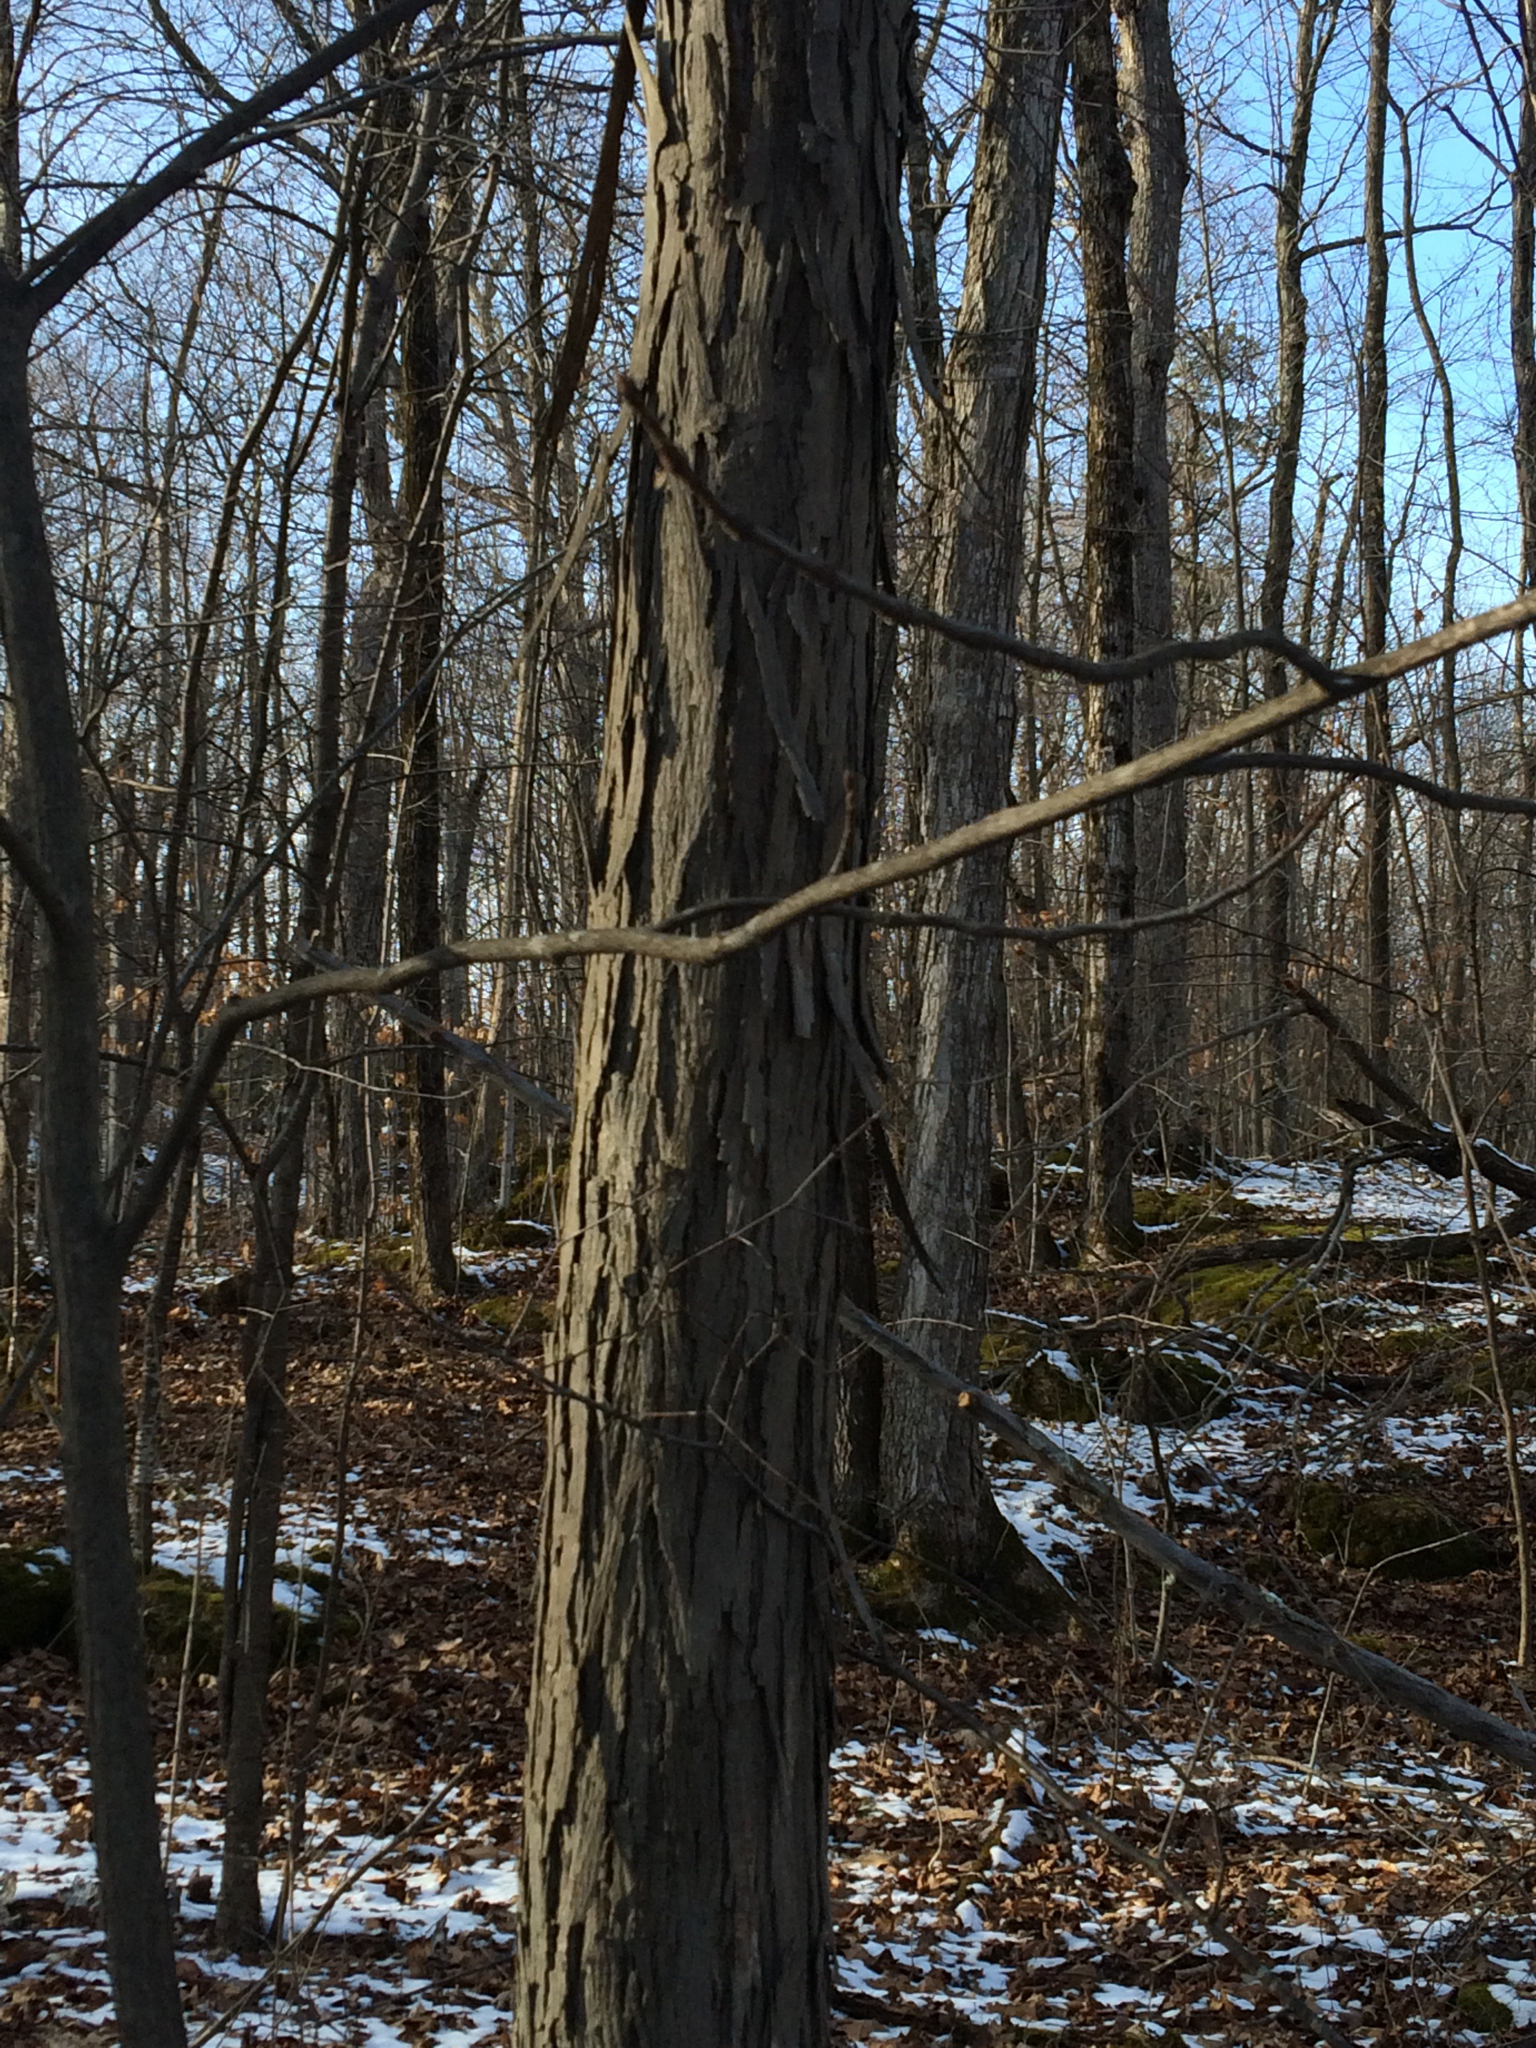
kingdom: Plantae
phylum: Tracheophyta
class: Magnoliopsida
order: Fagales
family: Juglandaceae
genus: Carya
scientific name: Carya ovata
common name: Shagbark hickory
